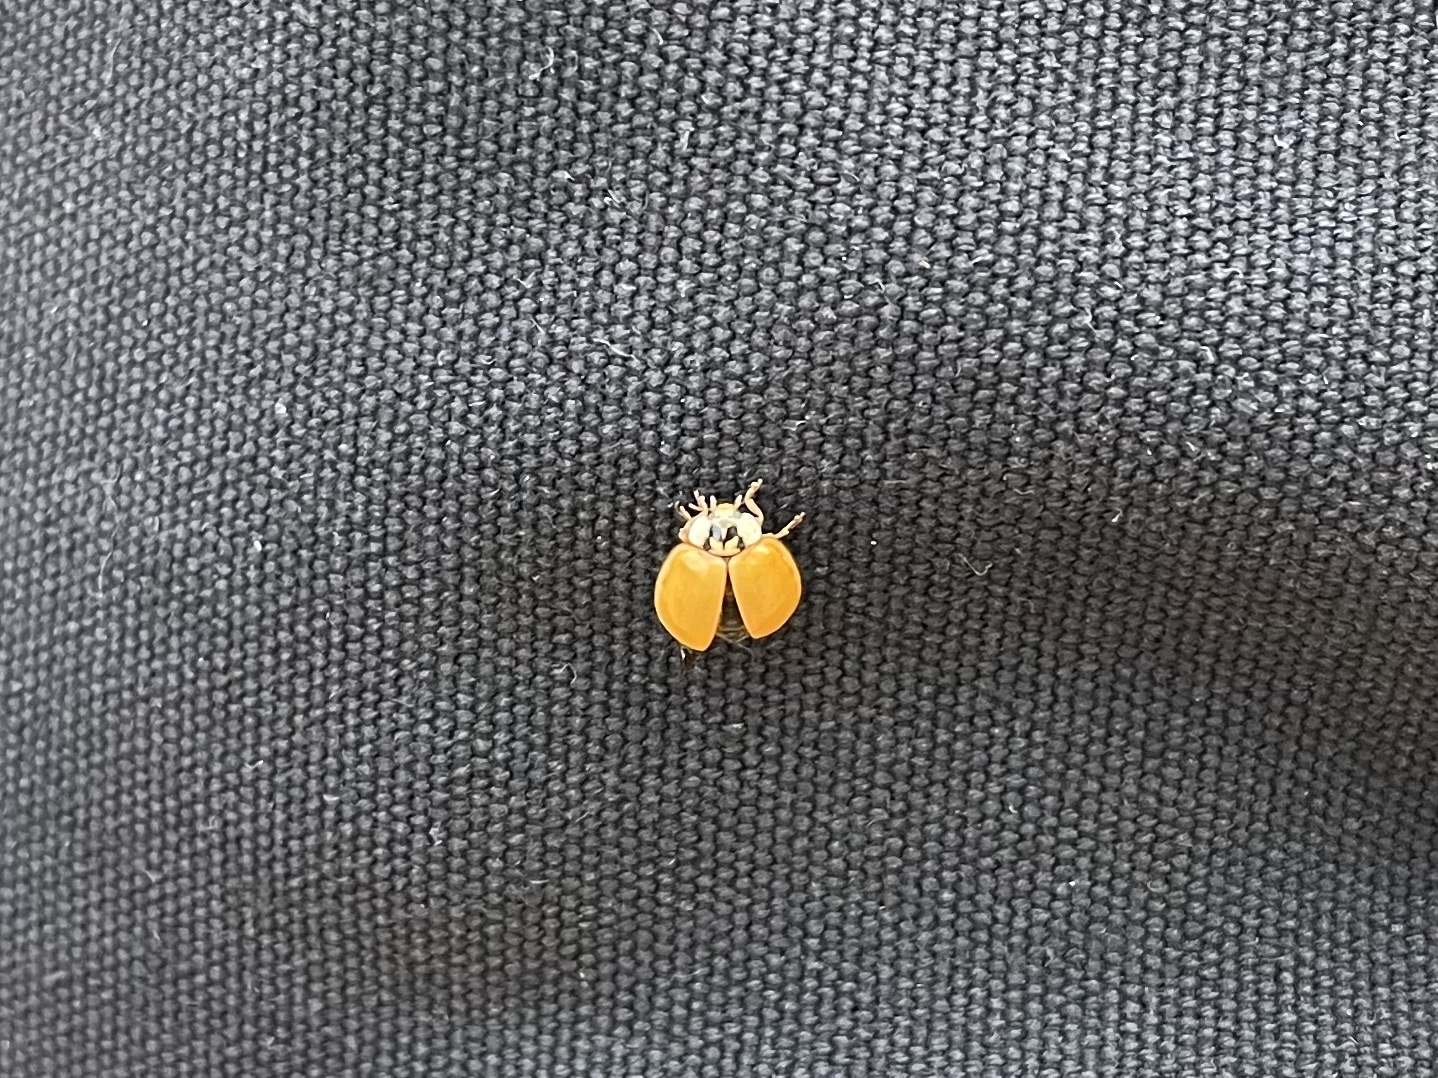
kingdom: Animalia
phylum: Arthropoda
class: Insecta
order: Coleoptera
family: Coccinellidae
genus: Harmonia
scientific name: Harmonia axyridis
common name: Harlequin ladybird
